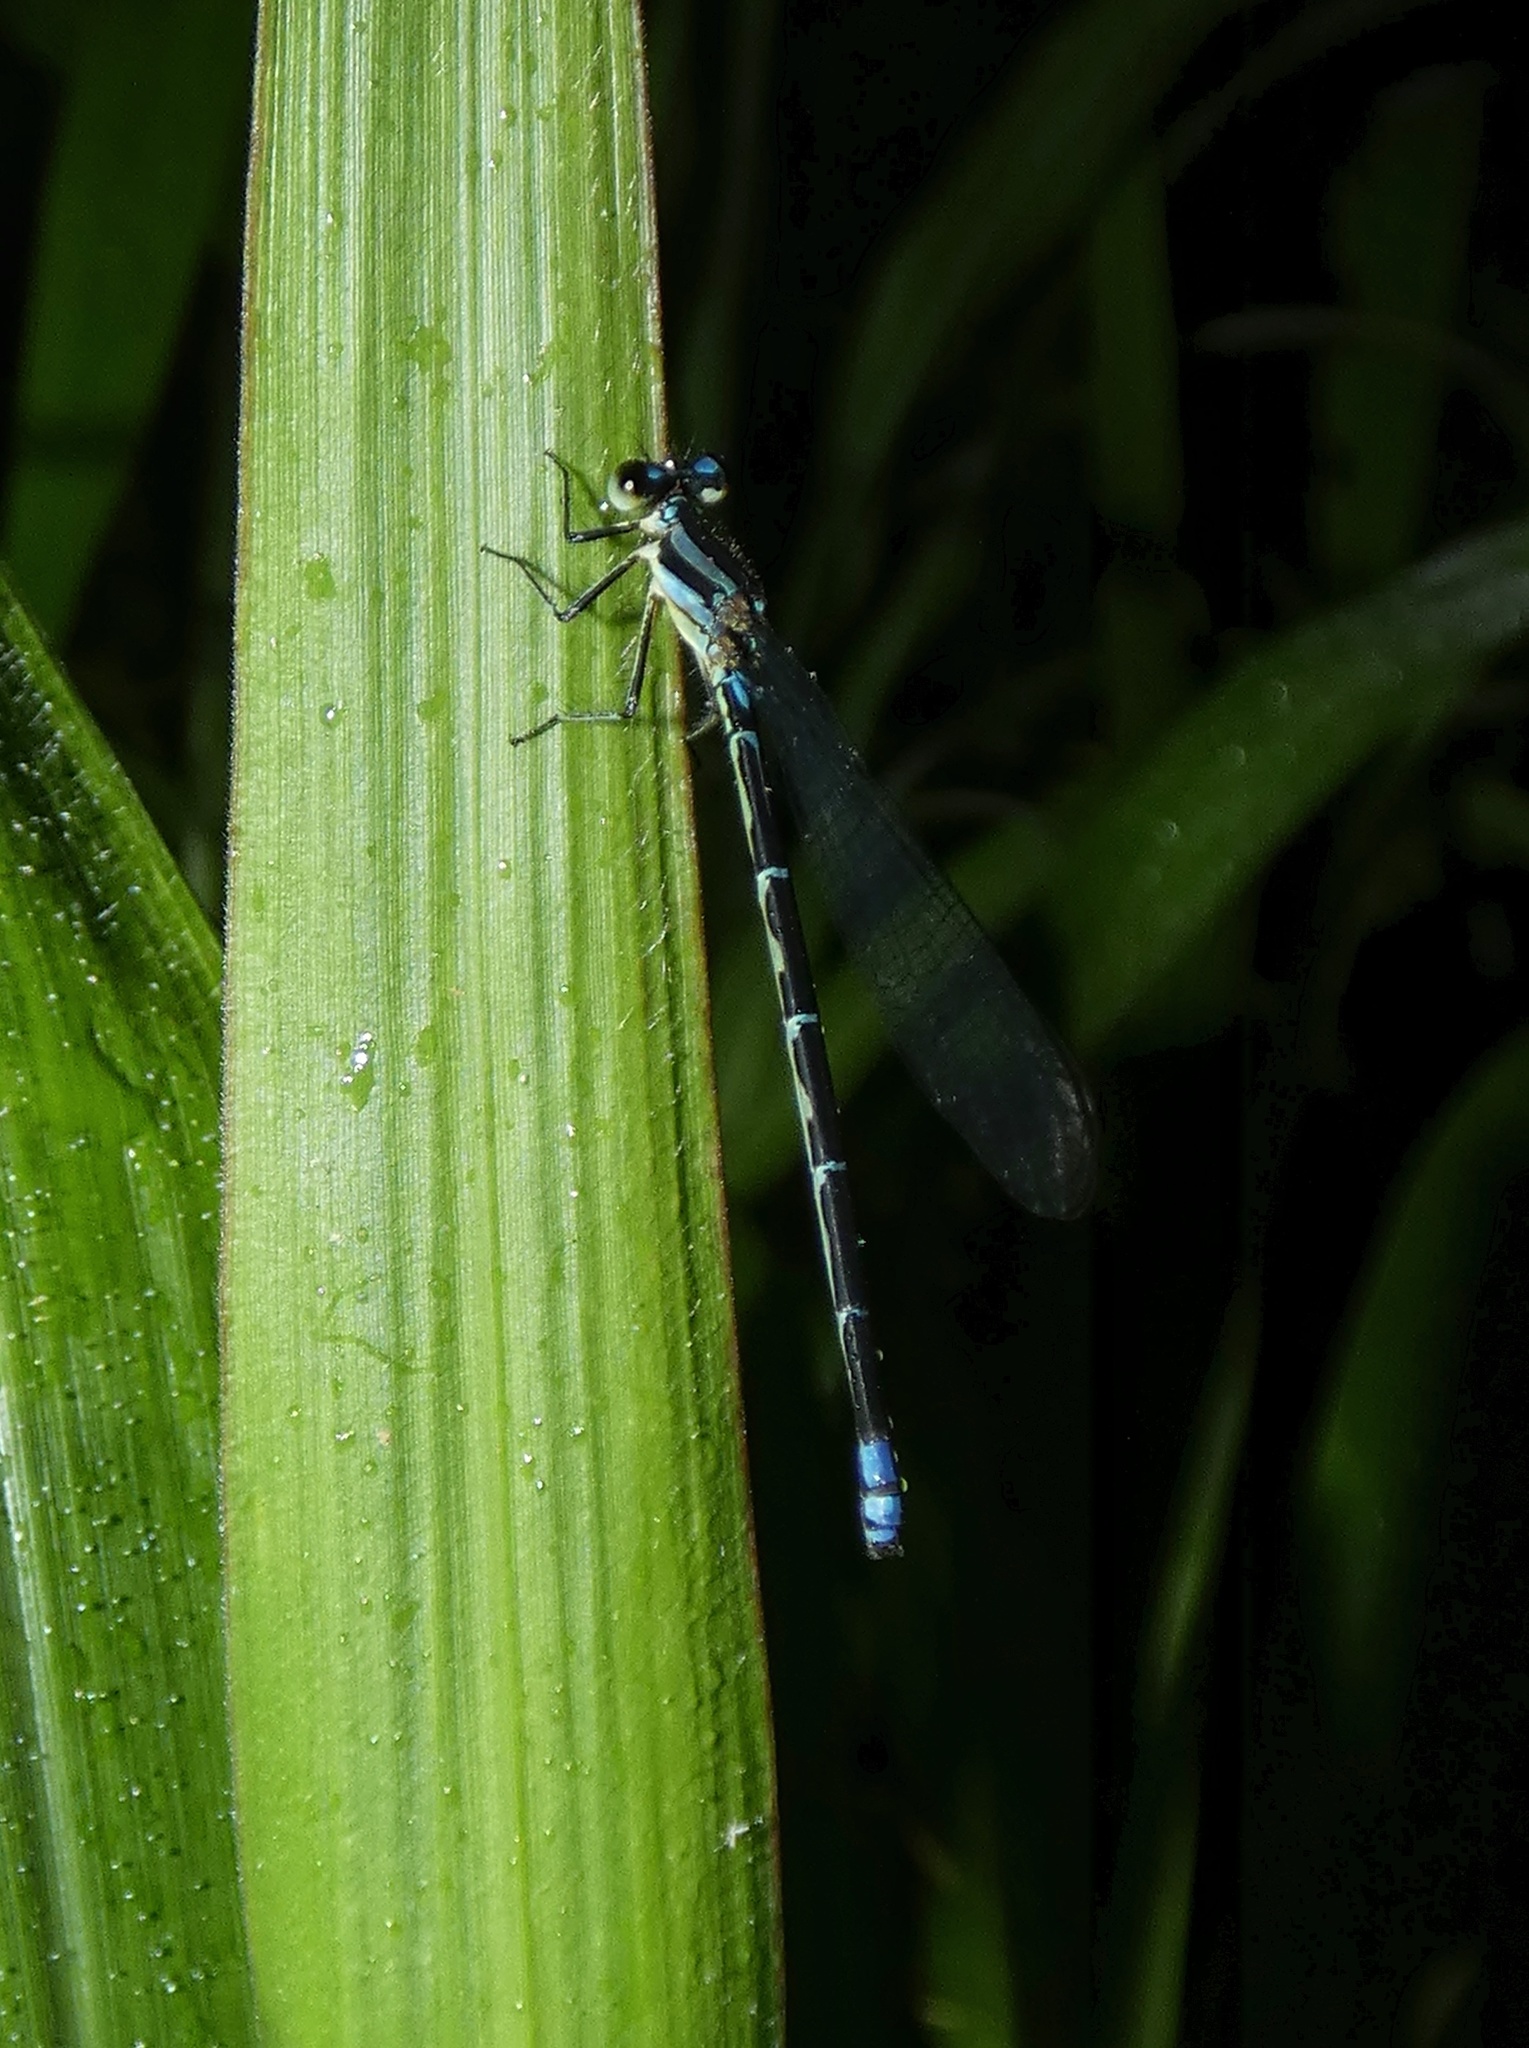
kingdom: Animalia
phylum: Arthropoda
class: Insecta
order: Odonata
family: Coenagrionidae
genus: Argia
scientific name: Argia johannella
